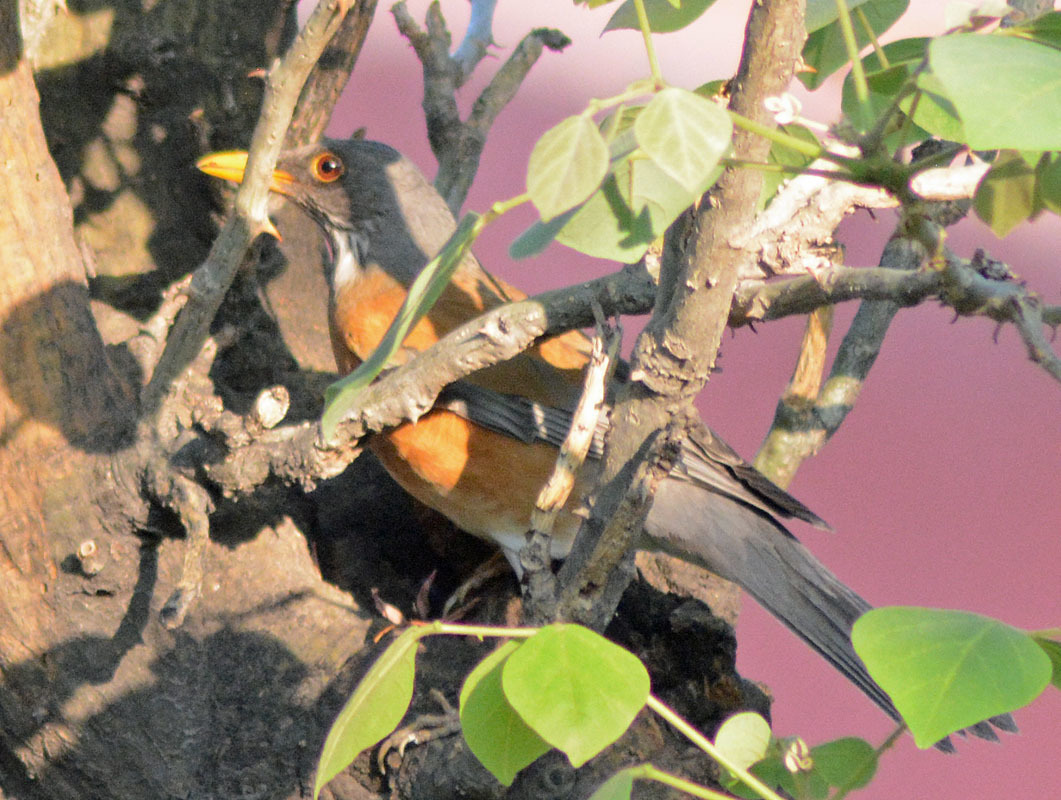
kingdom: Animalia
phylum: Chordata
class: Aves
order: Passeriformes
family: Turdidae
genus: Turdus
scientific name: Turdus rufopalliatus
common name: Rufous-backed robin
